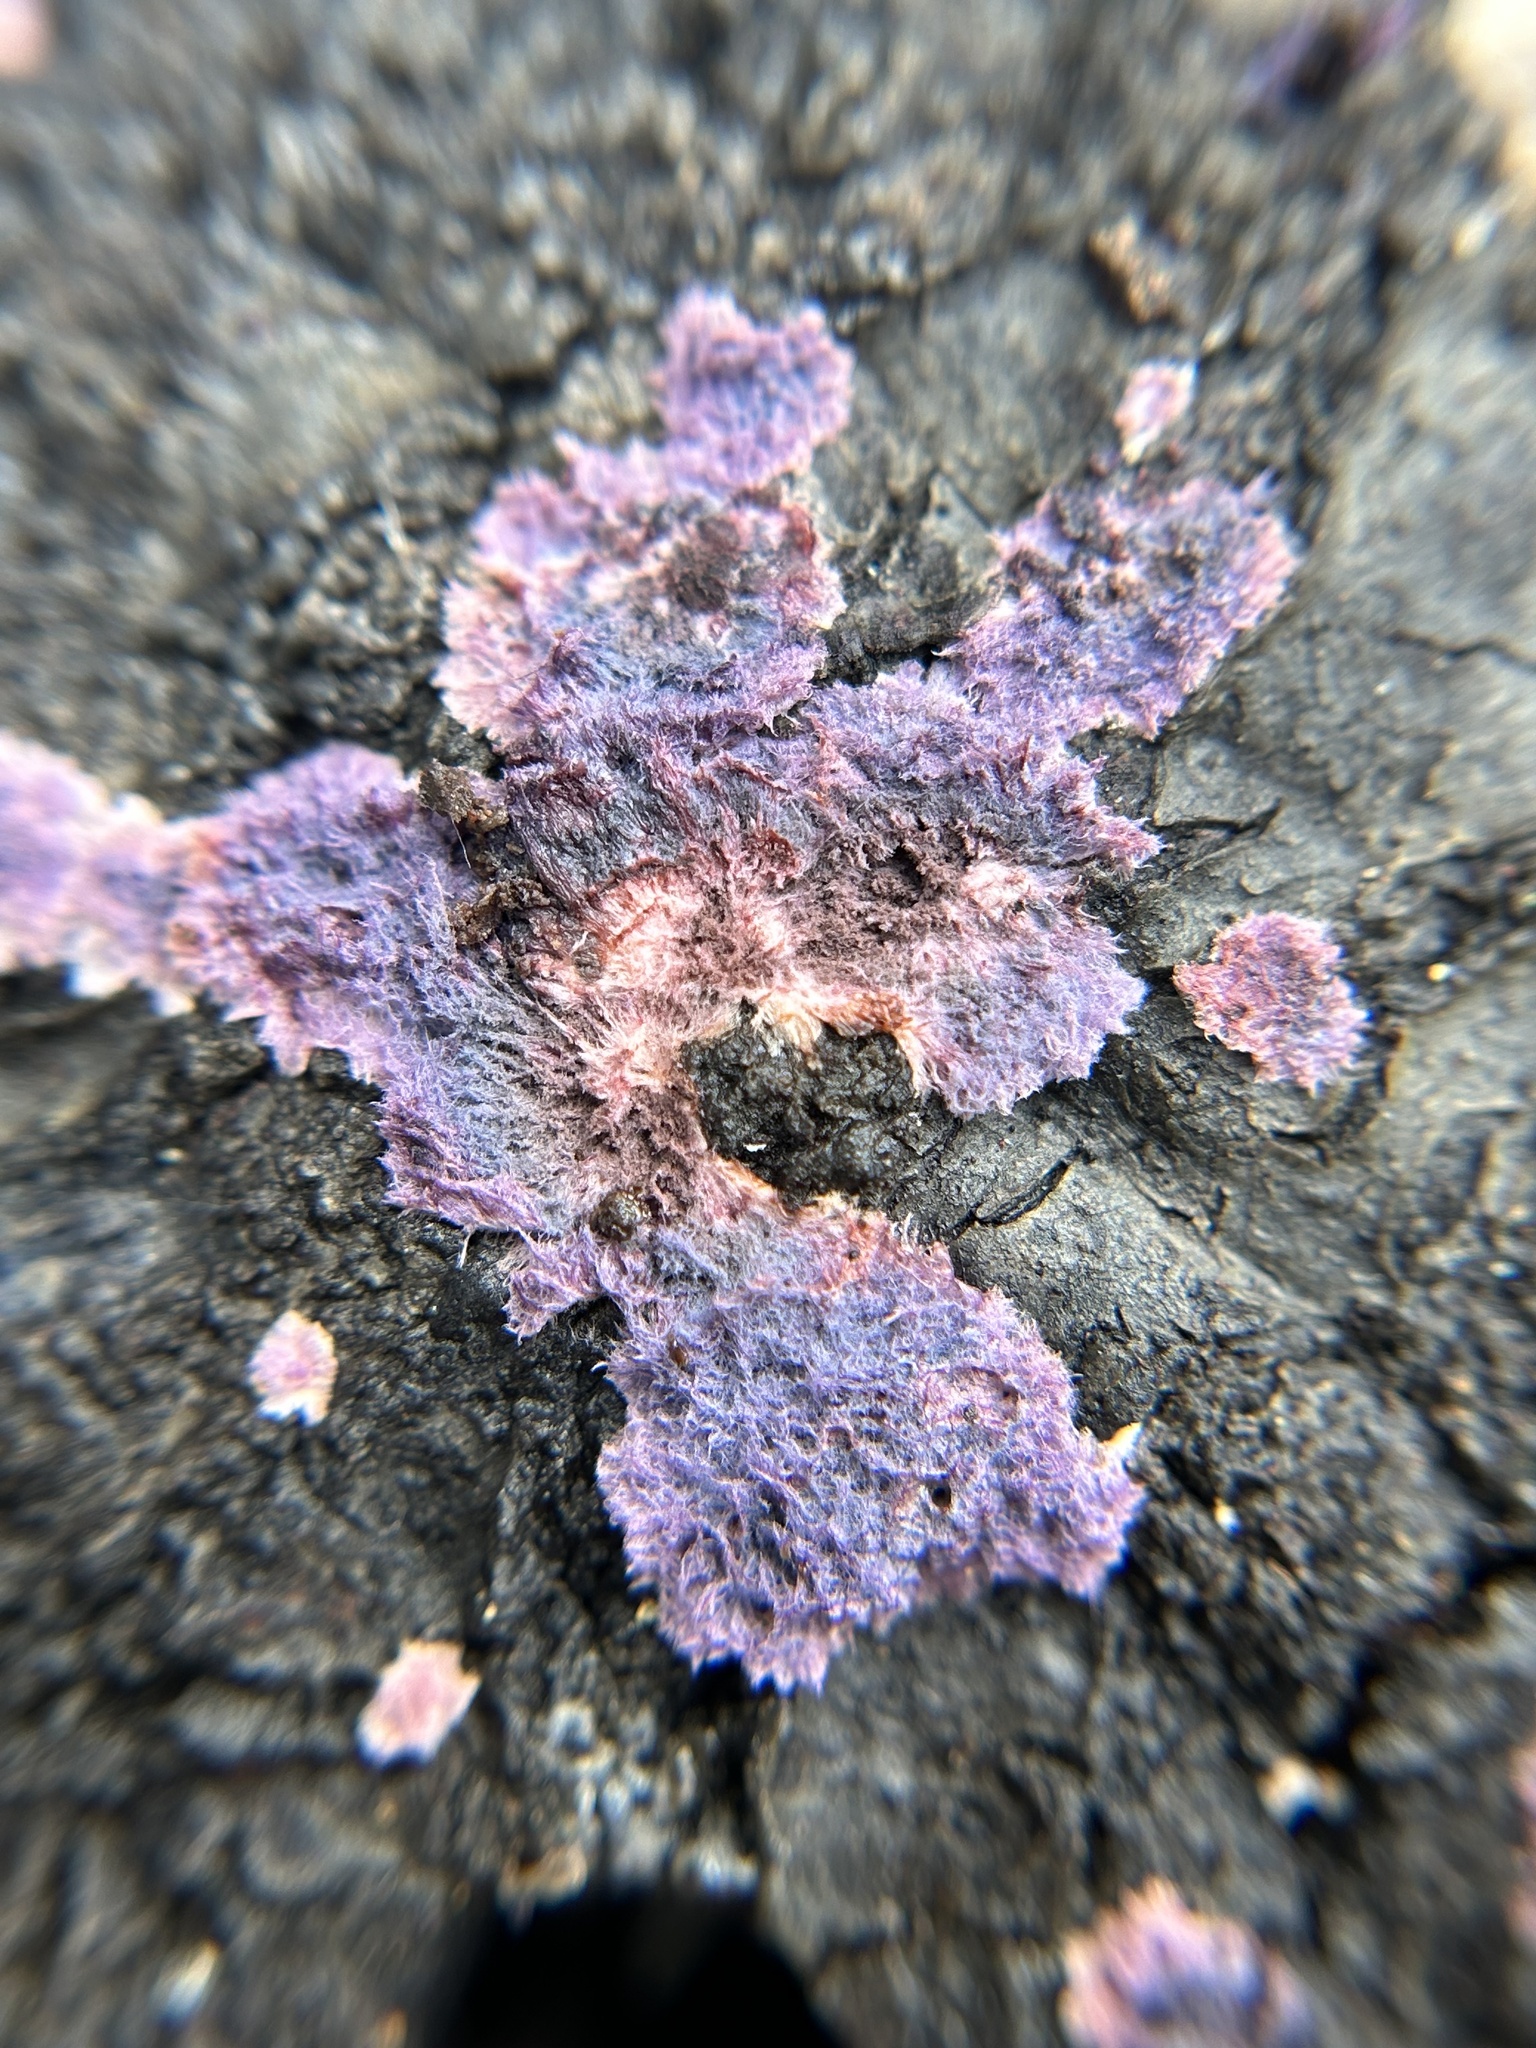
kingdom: Fungi
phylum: Basidiomycota
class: Agaricomycetes
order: Corticiales
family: Punctulariaceae
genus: Punctularia
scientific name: Punctularia atropurpurascens
